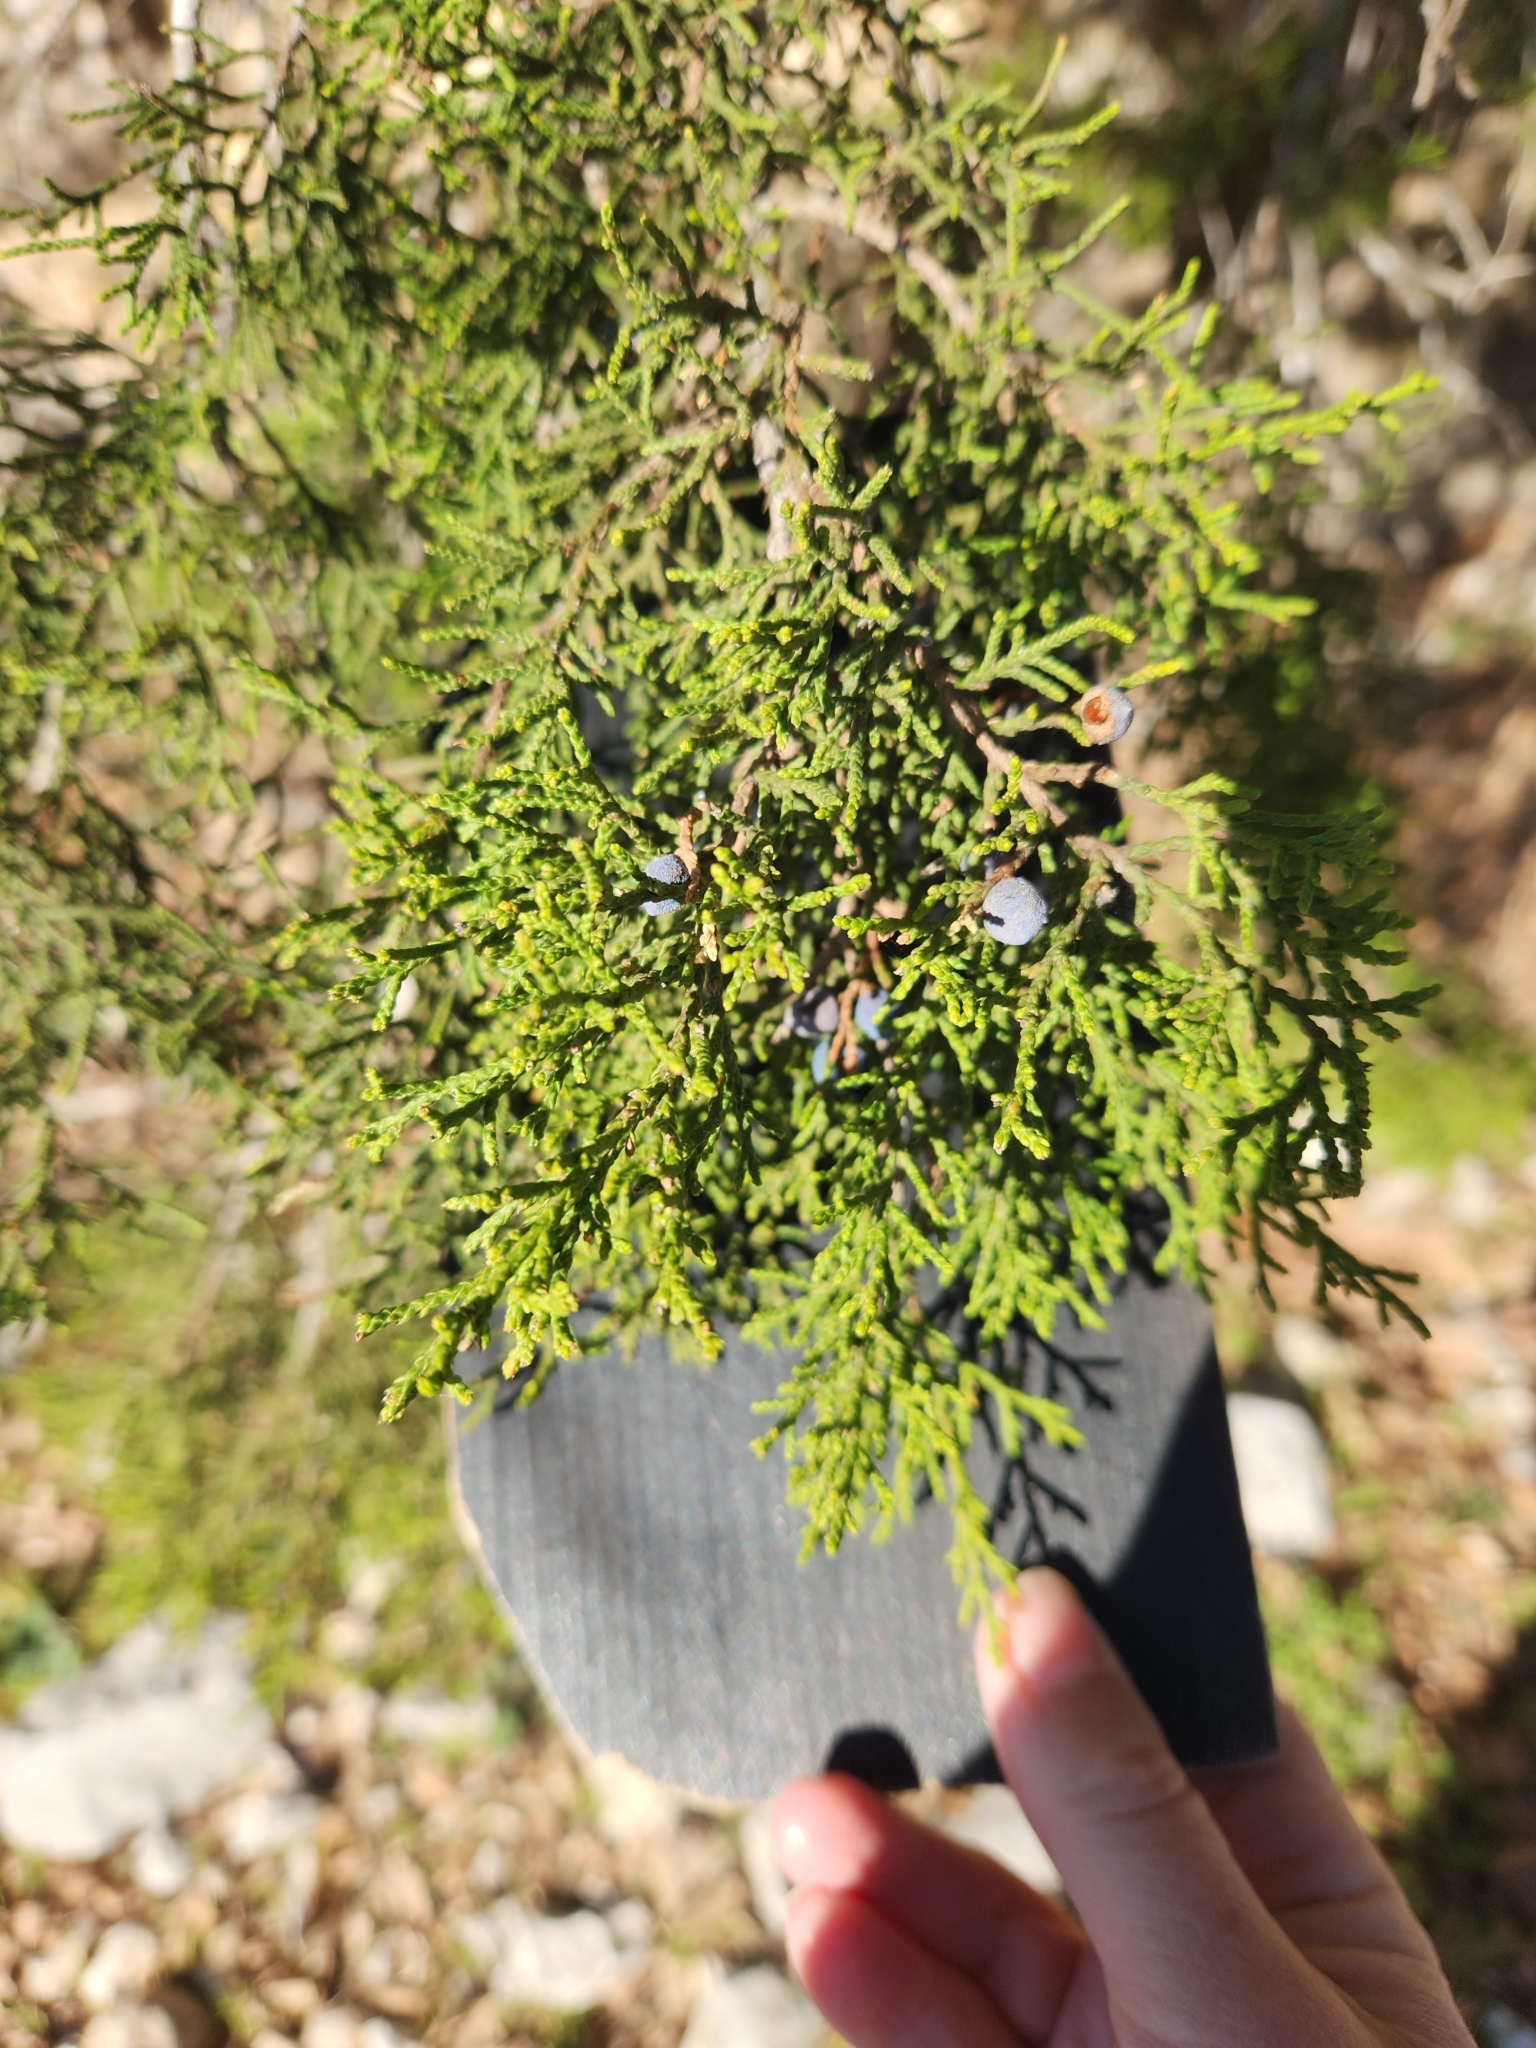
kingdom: Plantae
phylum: Tracheophyta
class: Pinopsida
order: Pinales
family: Cupressaceae
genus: Juniperus
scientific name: Juniperus ashei
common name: Mexican juniper
